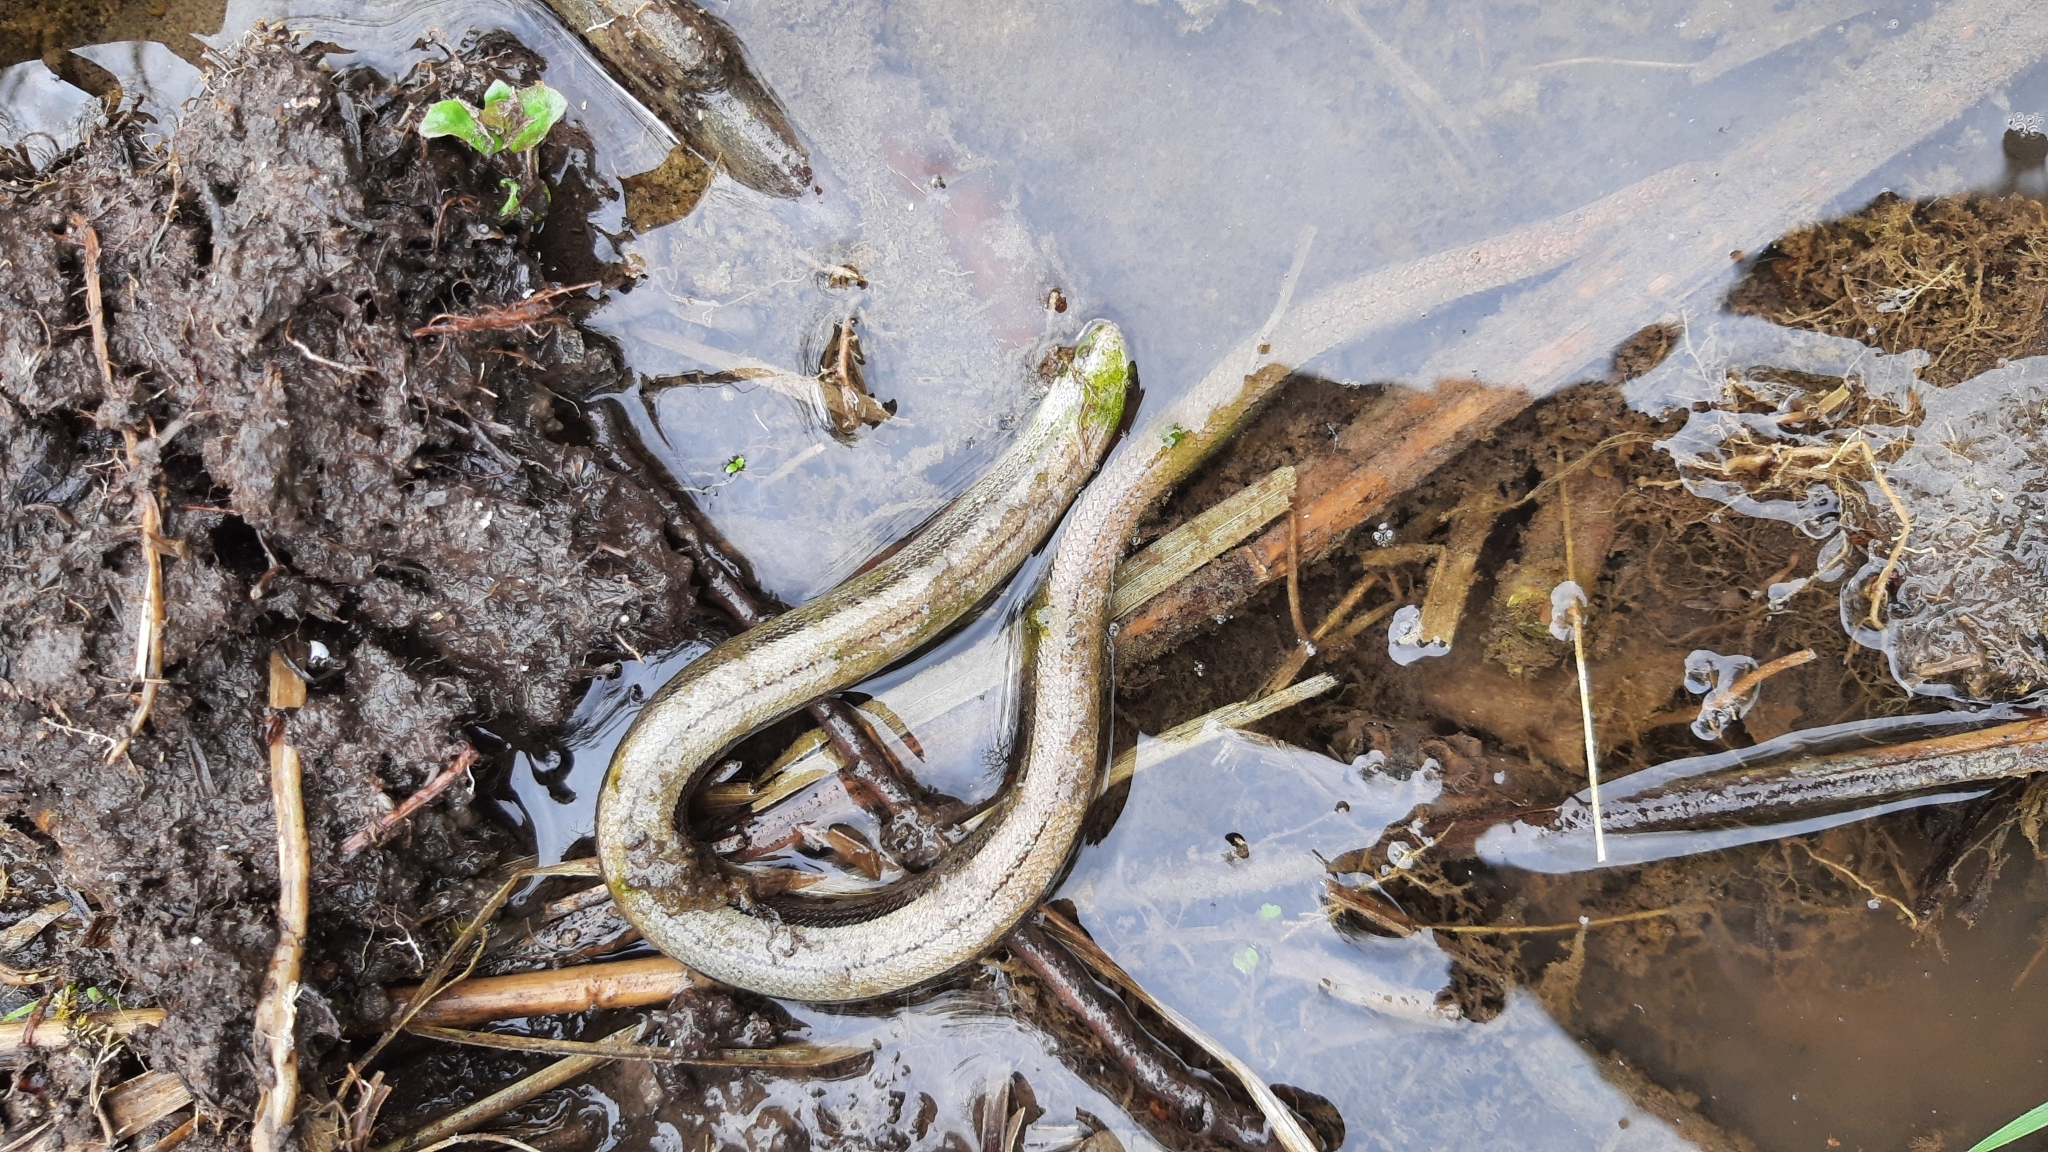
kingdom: Animalia
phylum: Chordata
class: Squamata
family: Anguidae
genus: Anguis
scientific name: Anguis fragilis
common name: Slow worm
